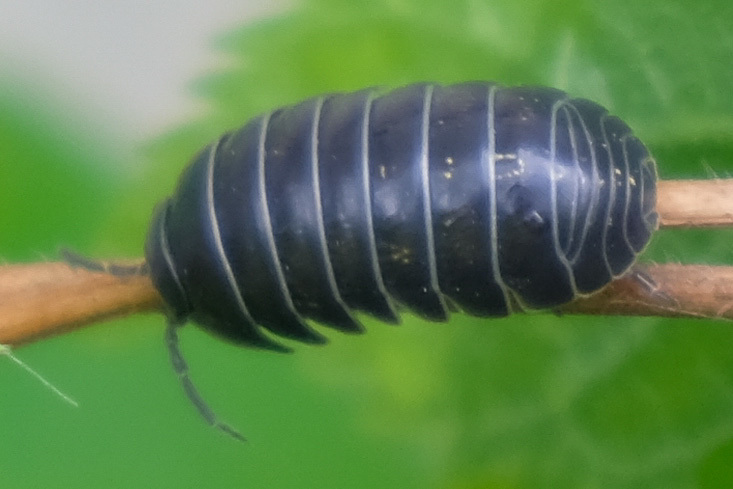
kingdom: Animalia
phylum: Arthropoda
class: Malacostraca
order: Isopoda
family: Armadillidiidae
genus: Armadillidium
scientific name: Armadillidium vulgare
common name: Common pill woodlouse
